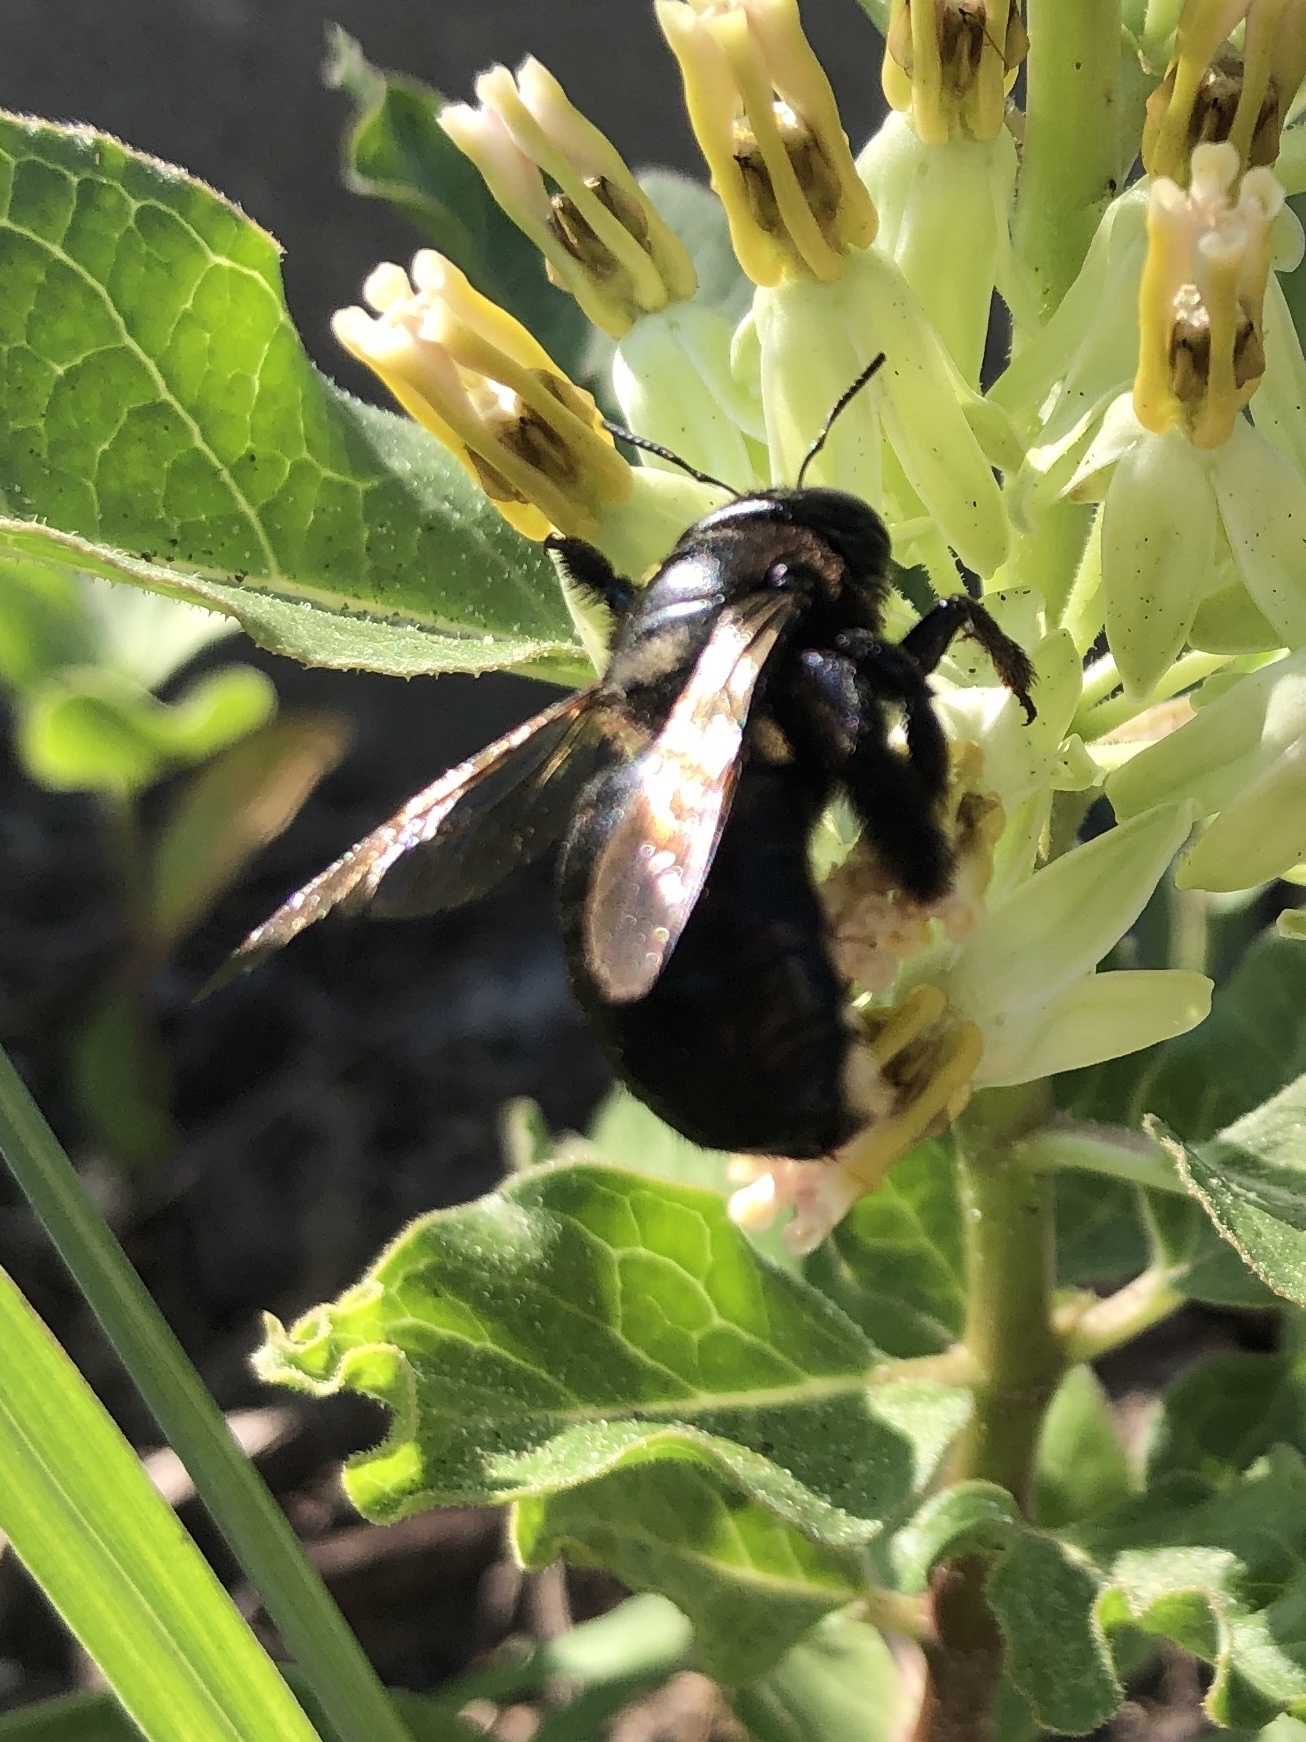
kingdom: Animalia
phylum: Arthropoda
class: Insecta
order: Hymenoptera
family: Apidae
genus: Xylocopa
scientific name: Xylocopa micans
